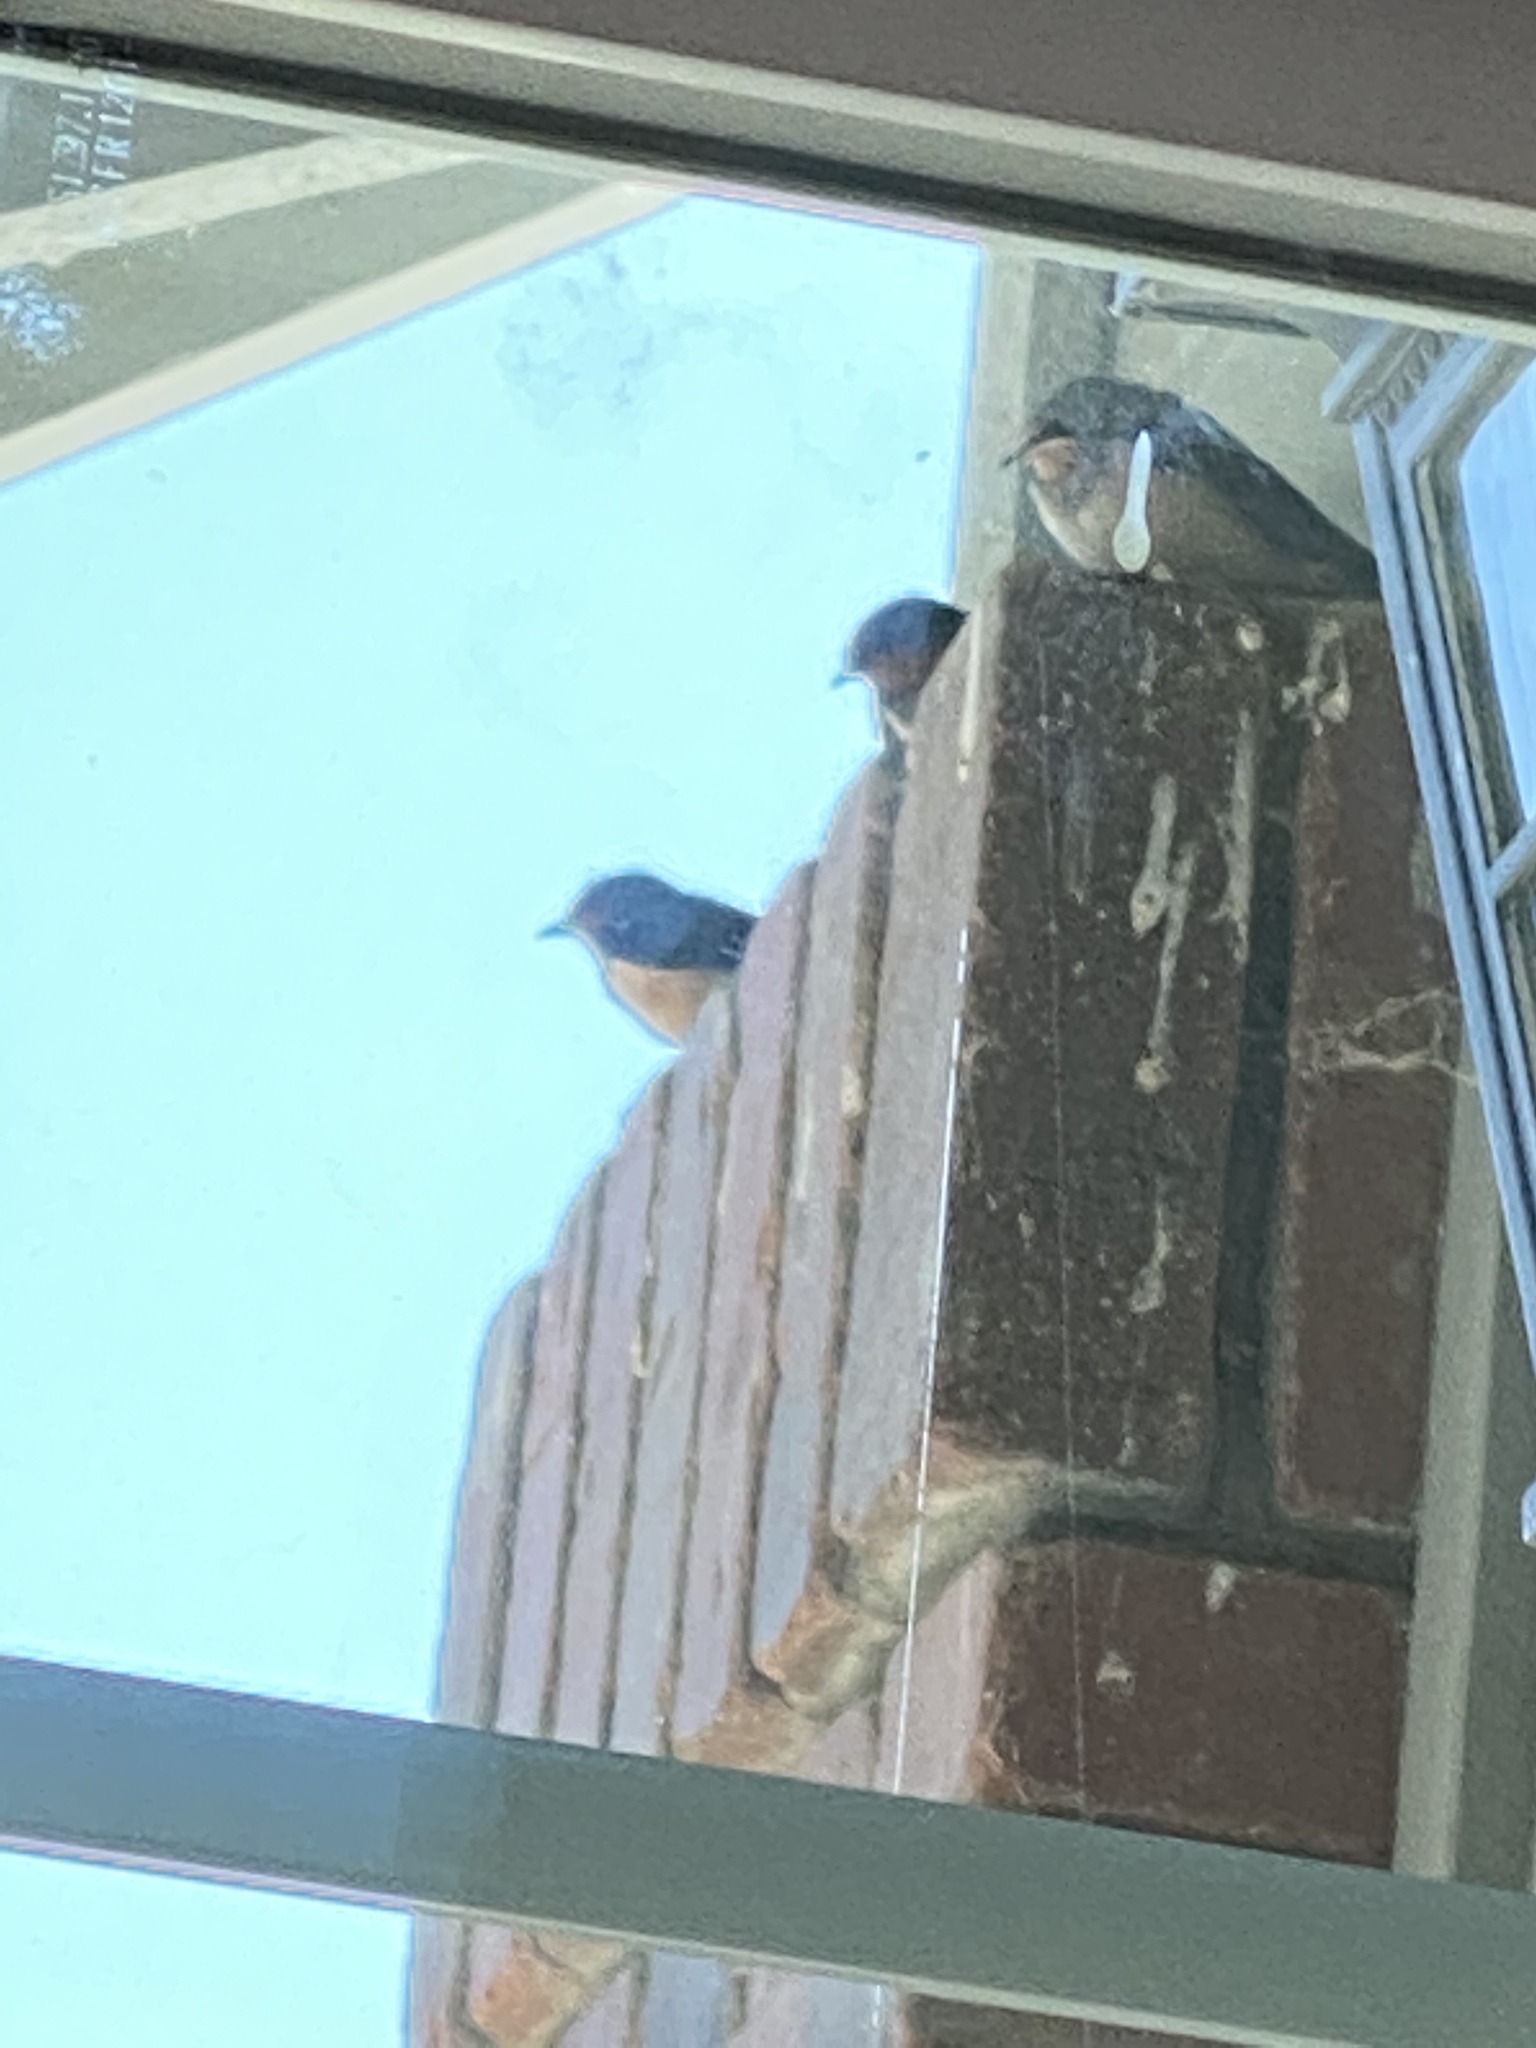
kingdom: Animalia
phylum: Chordata
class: Aves
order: Passeriformes
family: Hirundinidae
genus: Hirundo
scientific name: Hirundo rustica
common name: Barn swallow
